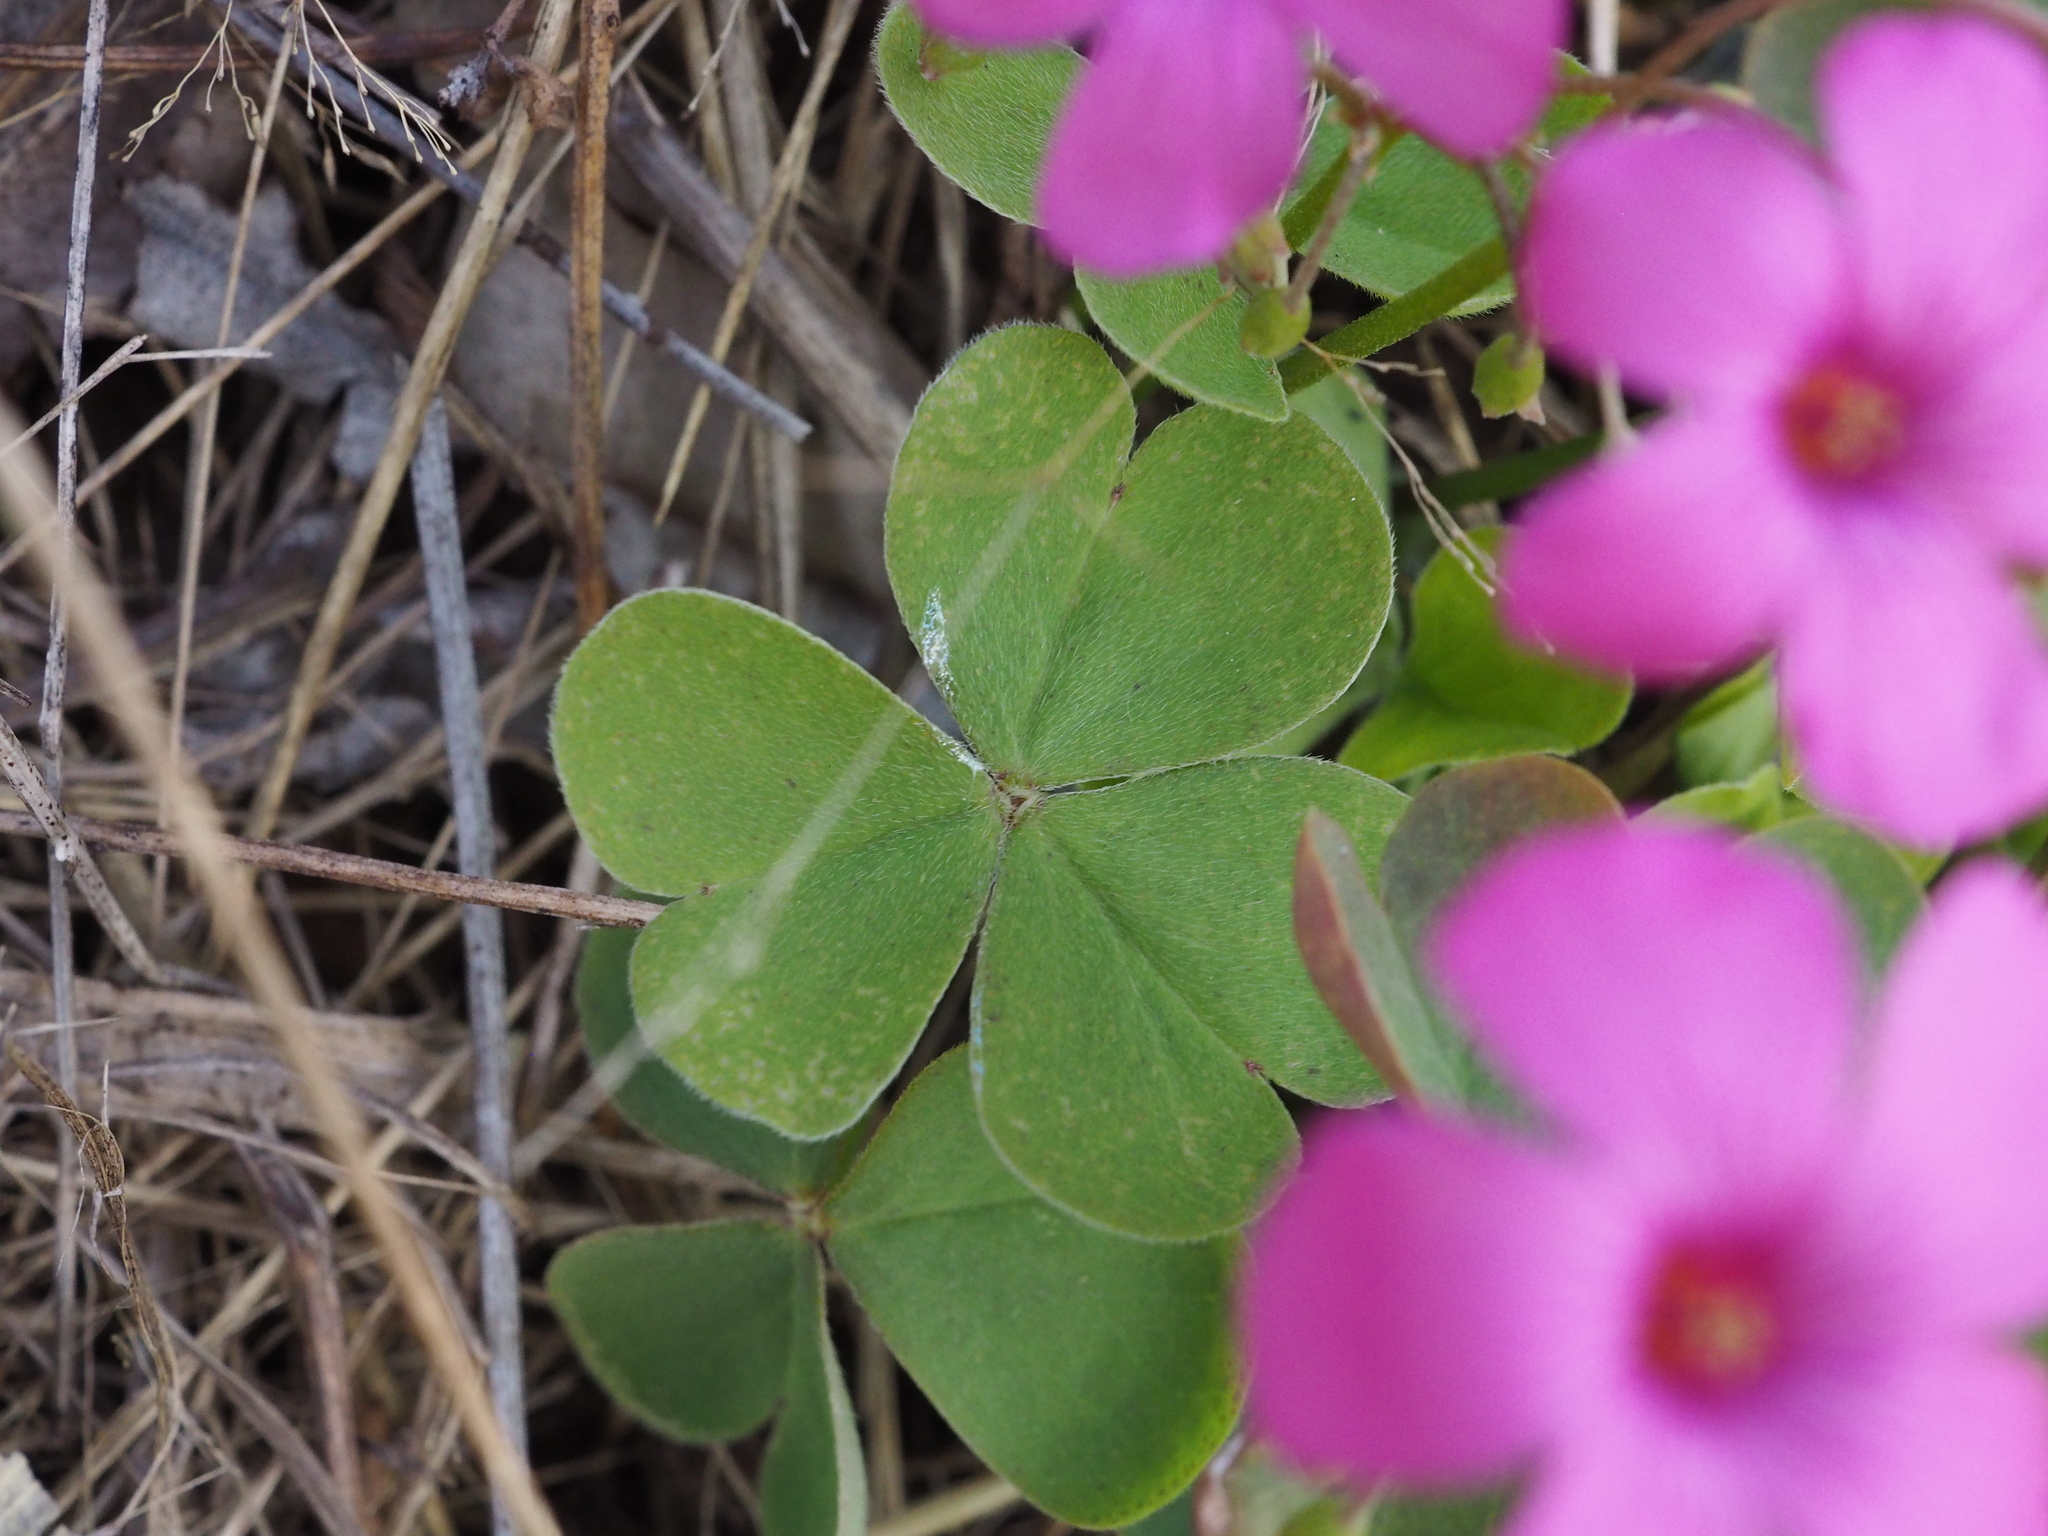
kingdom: Plantae
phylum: Tracheophyta
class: Magnoliopsida
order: Oxalidales
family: Oxalidaceae
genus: Oxalis
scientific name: Oxalis articulata
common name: Pink-sorrel
